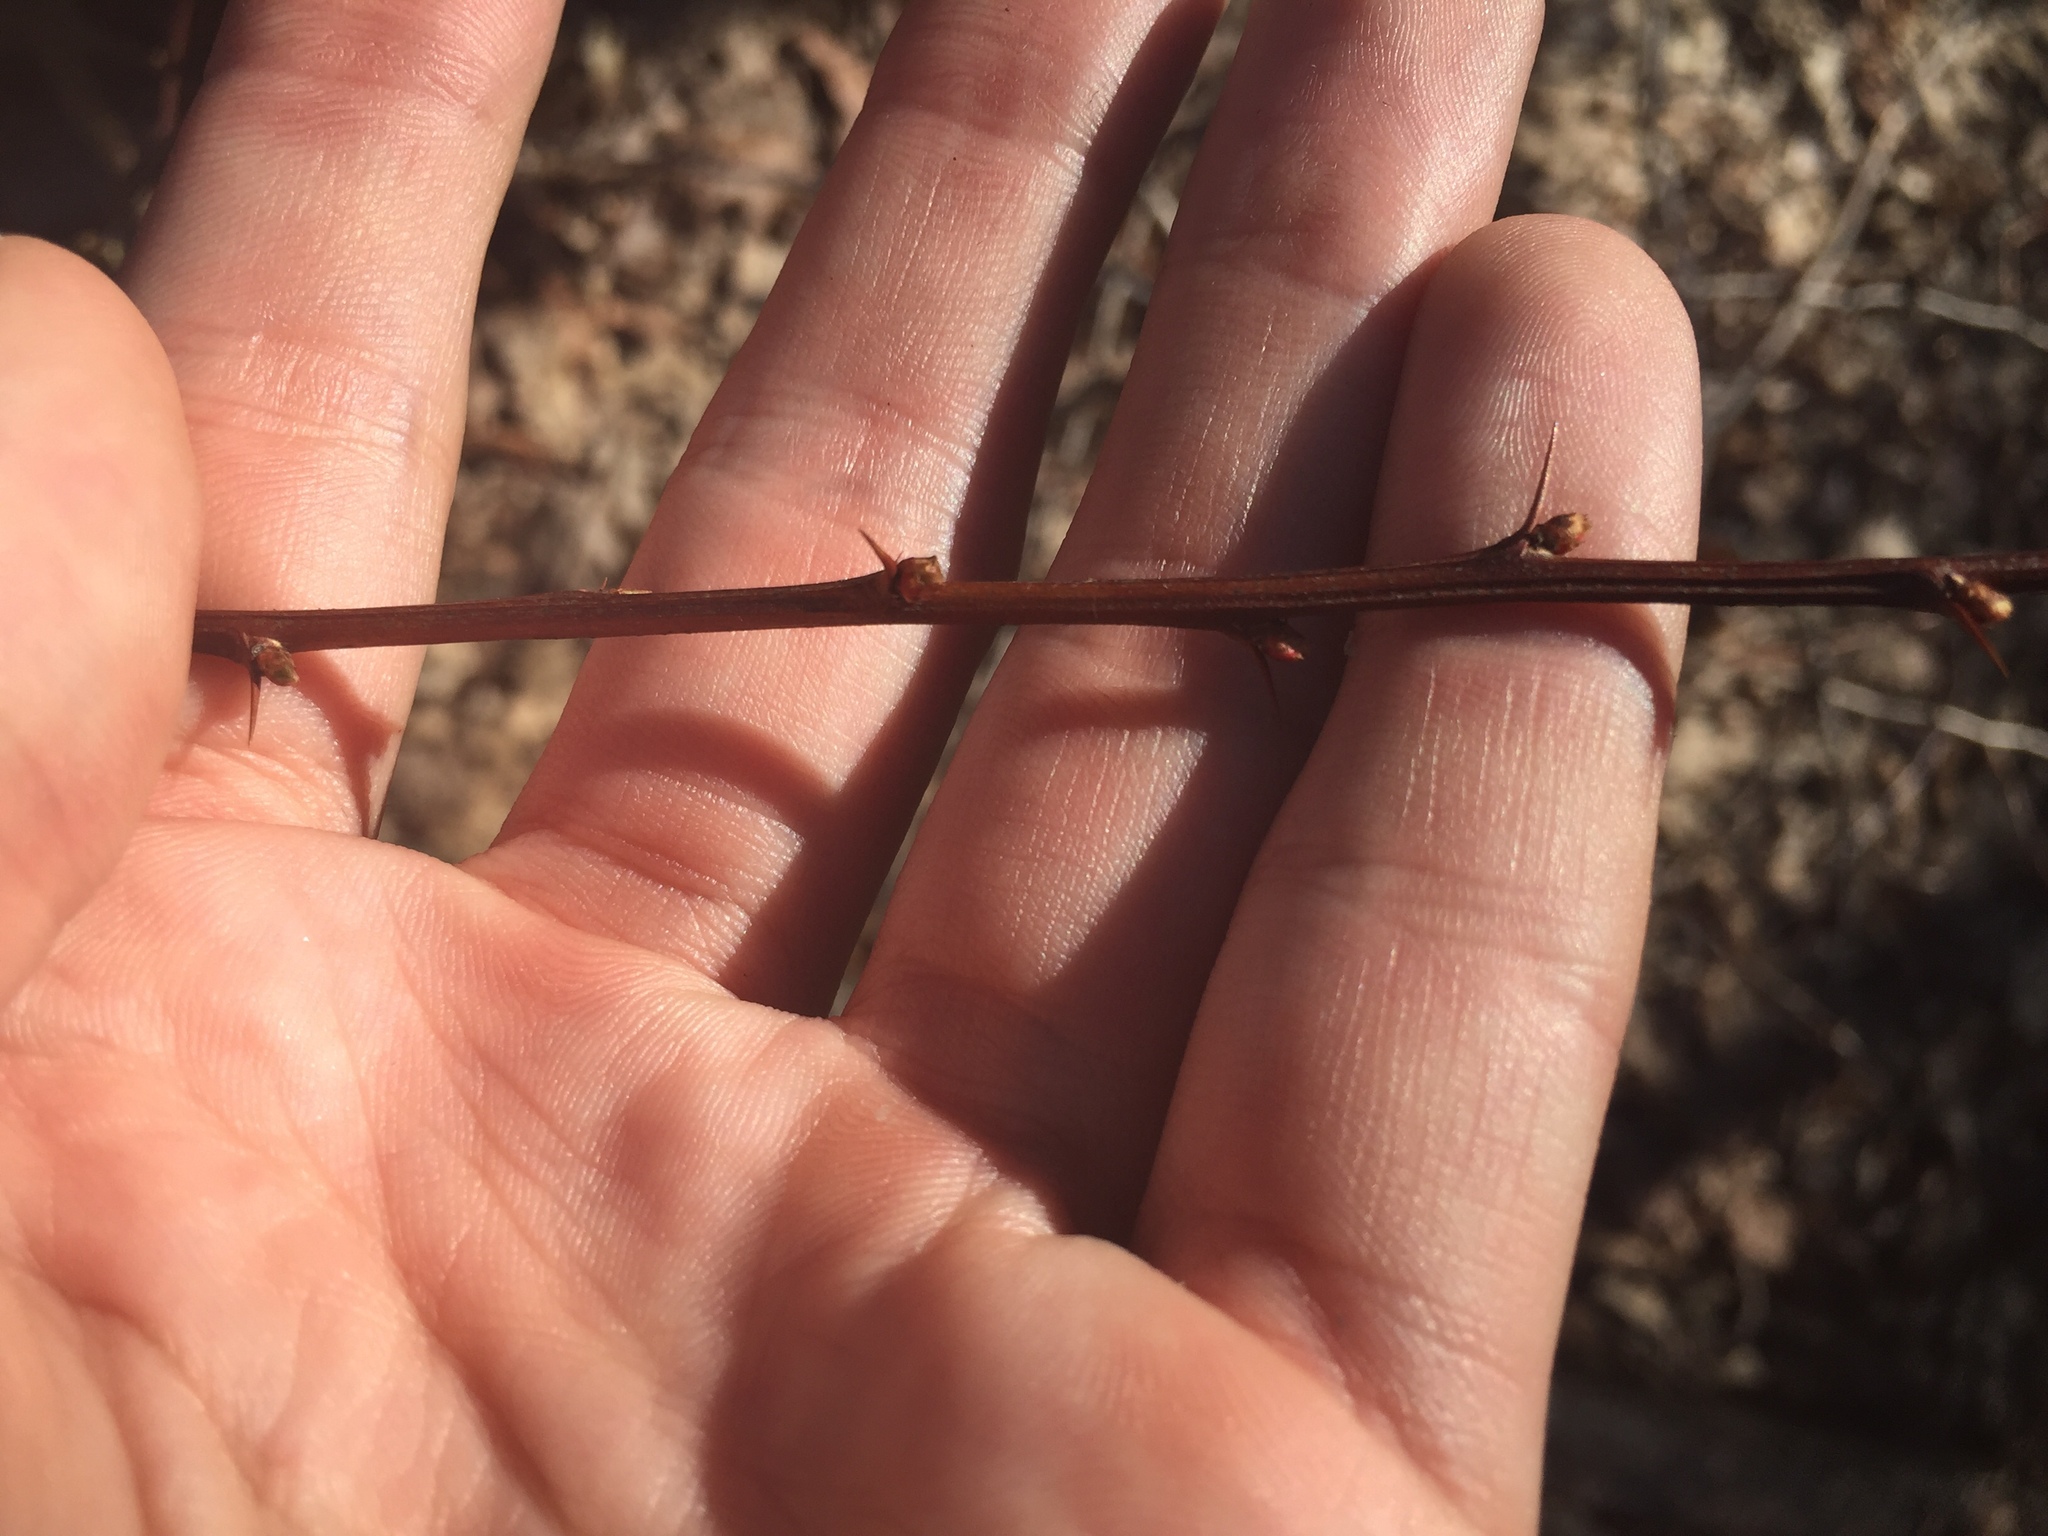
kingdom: Plantae
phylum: Tracheophyta
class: Magnoliopsida
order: Ranunculales
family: Berberidaceae
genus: Berberis
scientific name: Berberis thunbergii
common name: Japanese barberry
